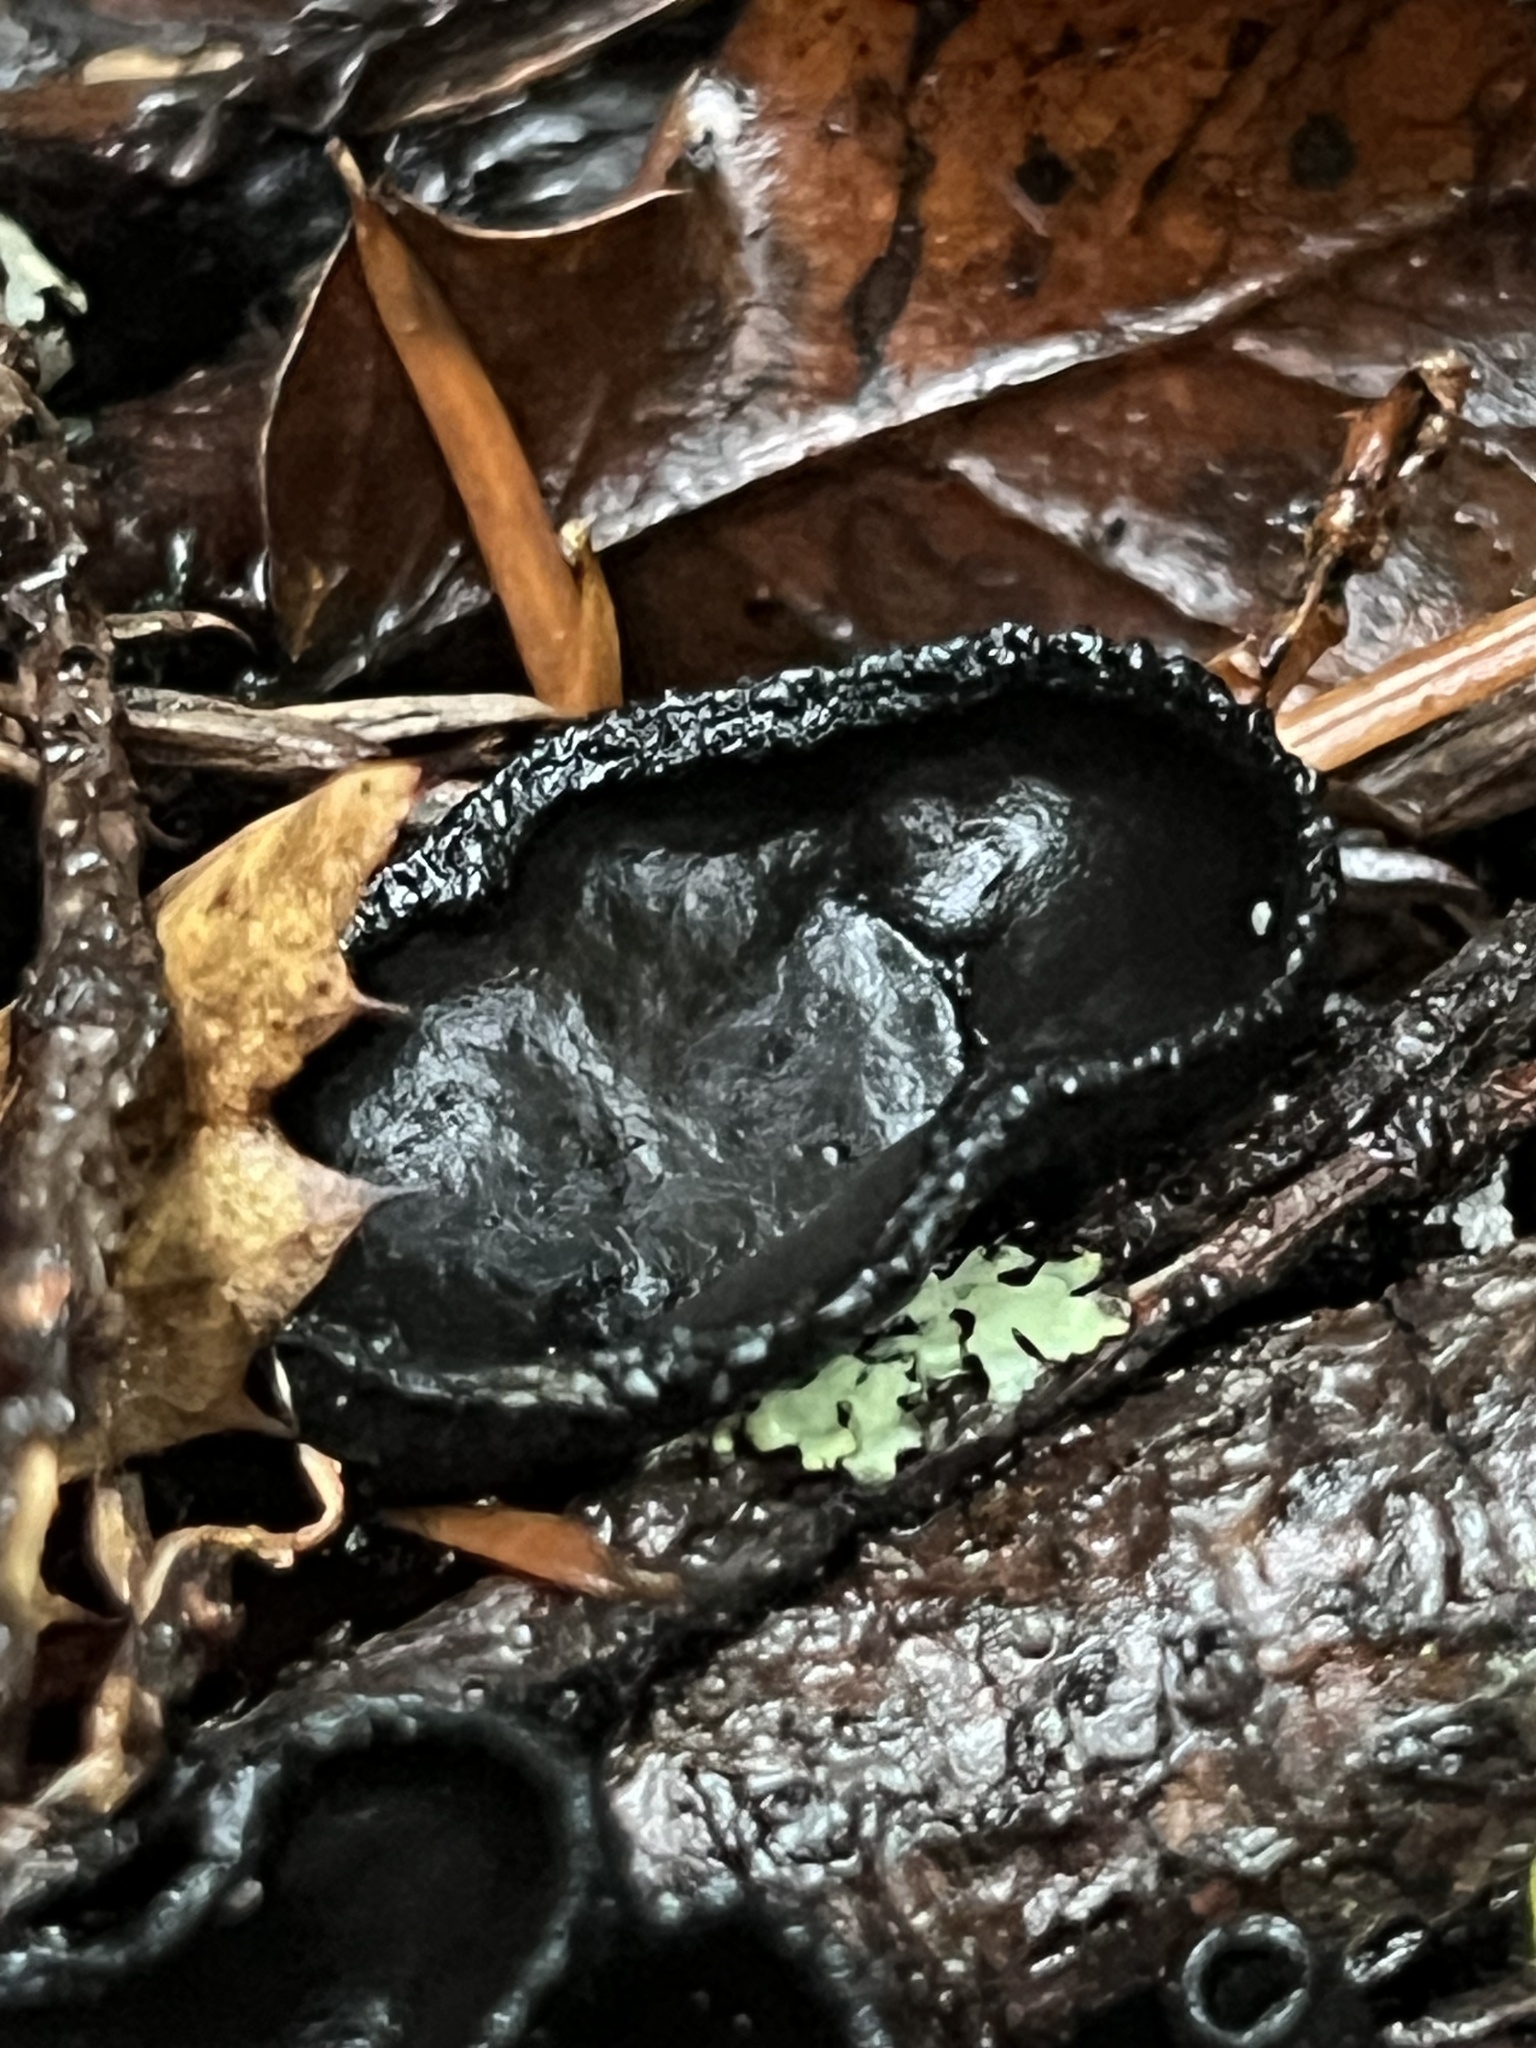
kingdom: Fungi
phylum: Ascomycota
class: Pezizomycetes
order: Pezizales
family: Sarcosomataceae
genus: Plectania
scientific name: Plectania milleri
